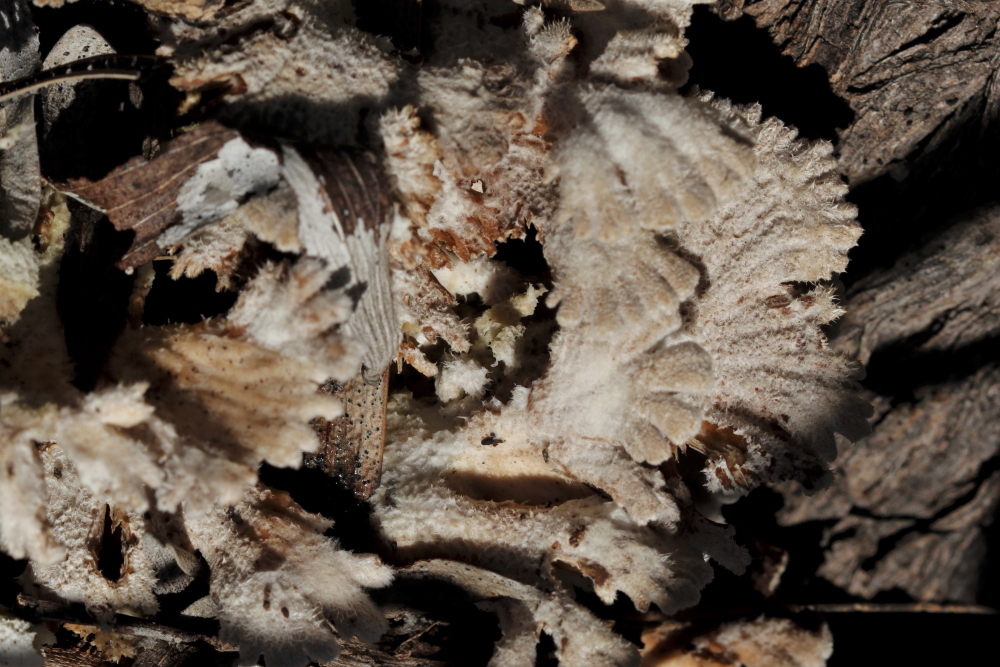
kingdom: Fungi
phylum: Basidiomycota
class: Agaricomycetes
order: Agaricales
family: Schizophyllaceae
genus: Schizophyllum
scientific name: Schizophyllum commune
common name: Common porecrust
